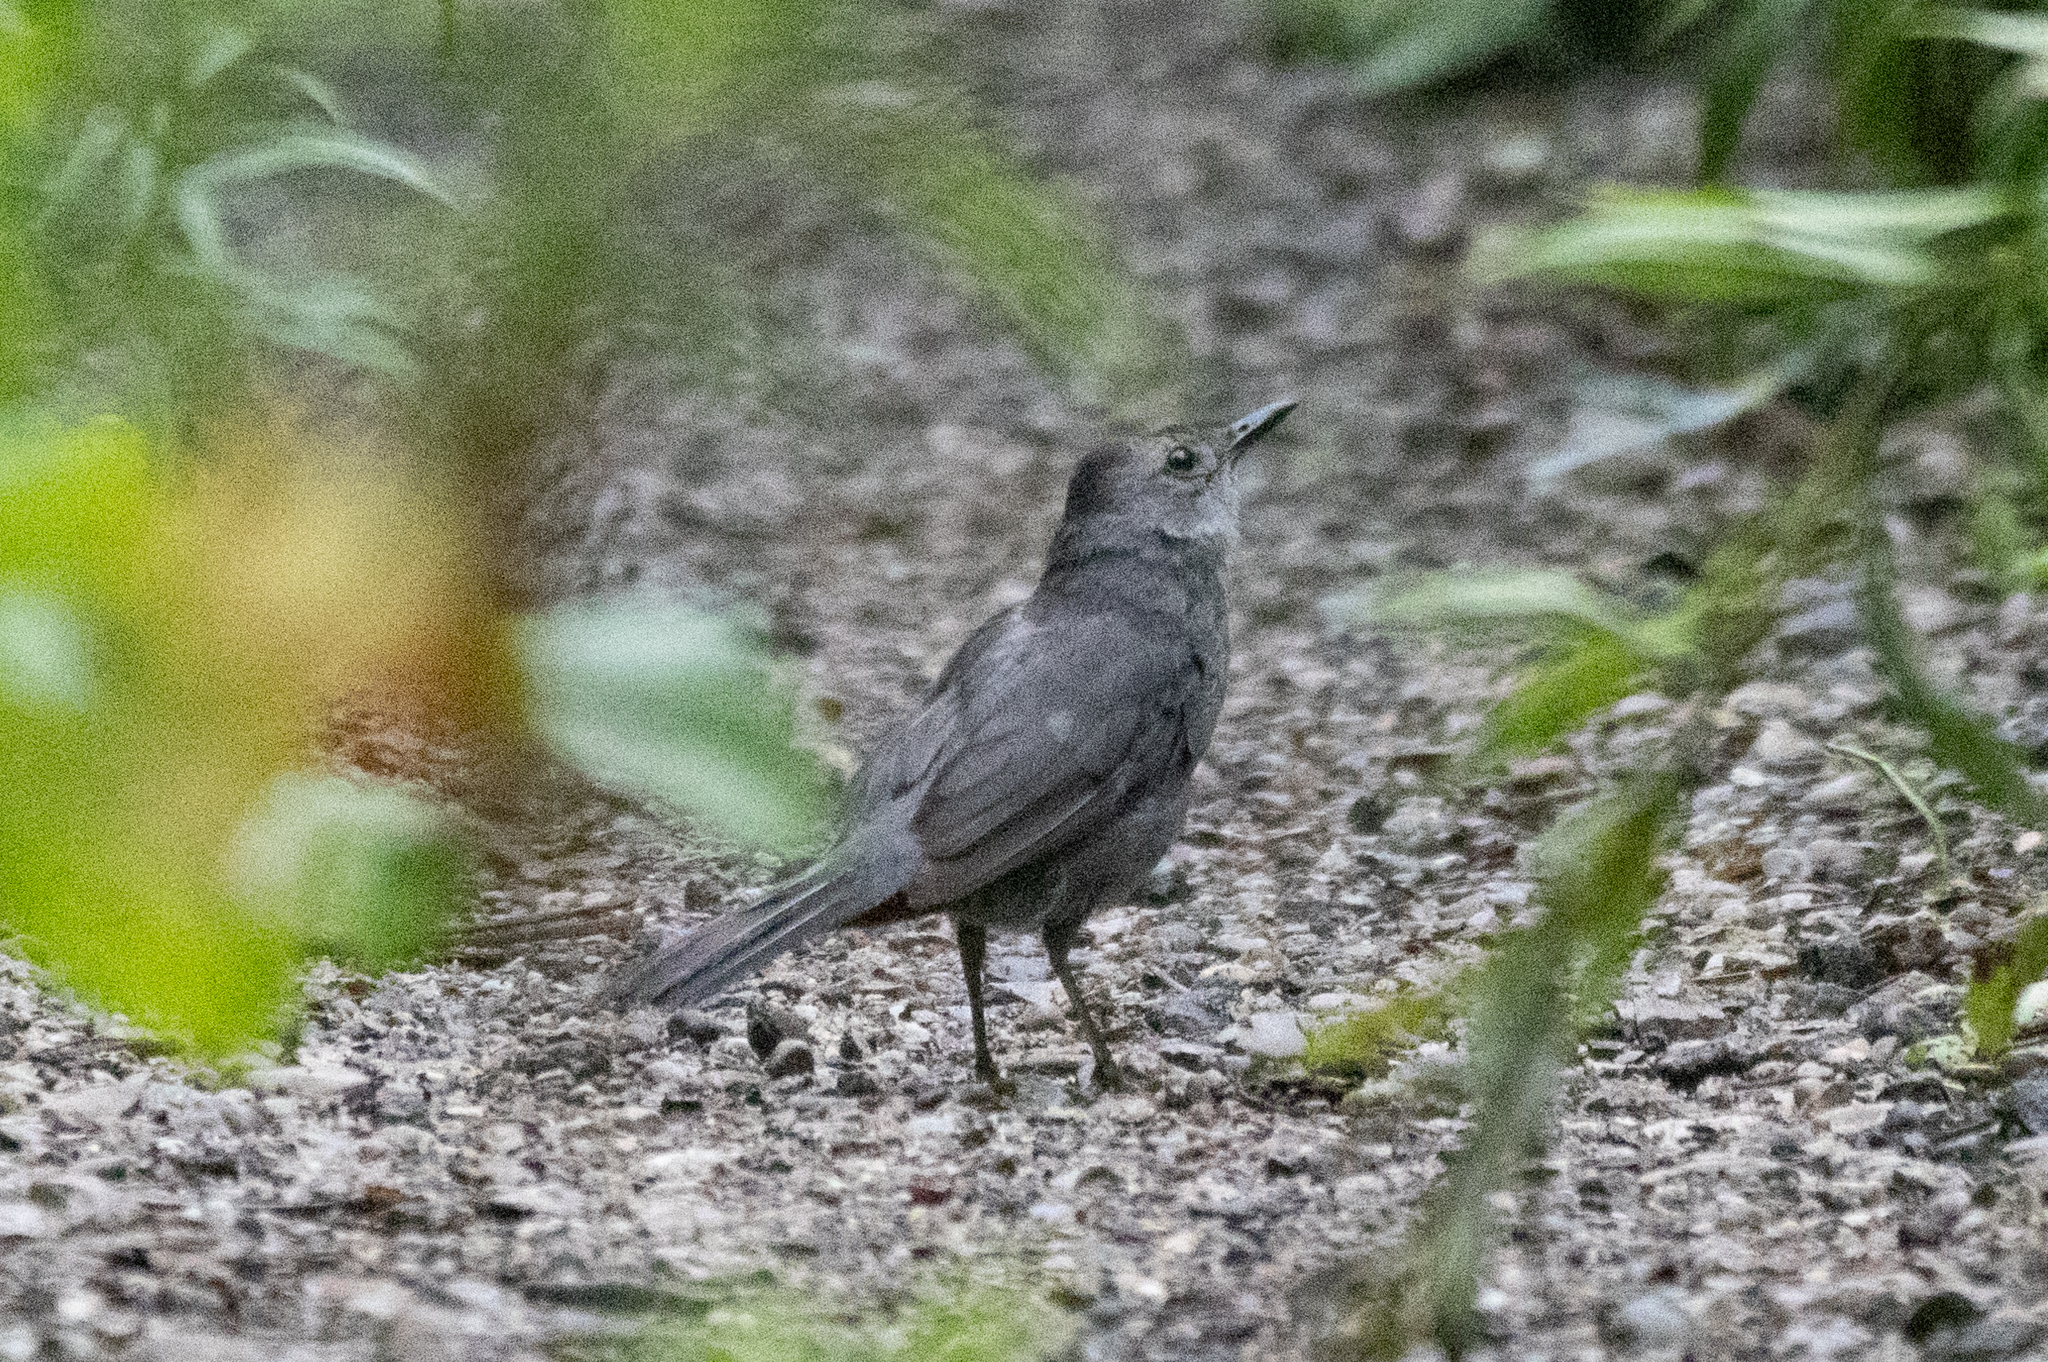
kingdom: Animalia
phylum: Chordata
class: Aves
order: Passeriformes
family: Mimidae
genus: Dumetella
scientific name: Dumetella carolinensis
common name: Gray catbird
